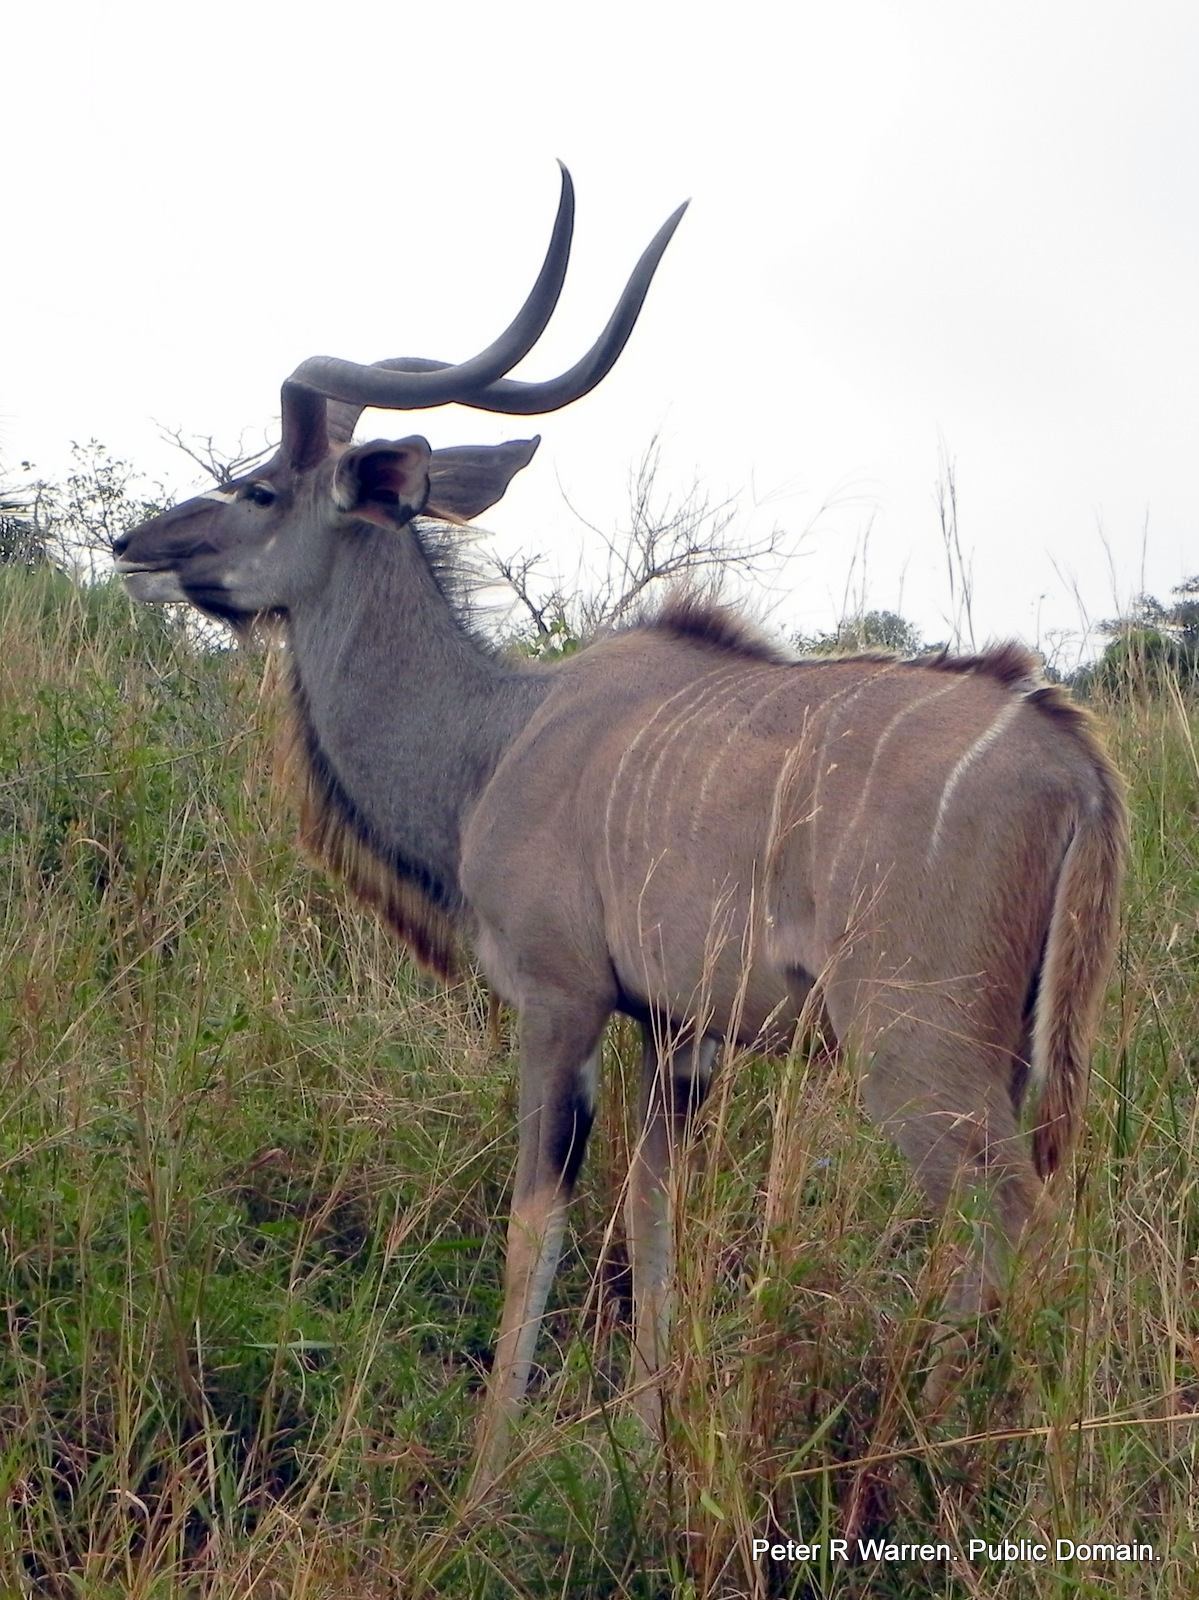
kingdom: Animalia
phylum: Chordata
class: Mammalia
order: Artiodactyla
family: Bovidae
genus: Tragelaphus
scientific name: Tragelaphus strepsiceros
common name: Greater kudu
